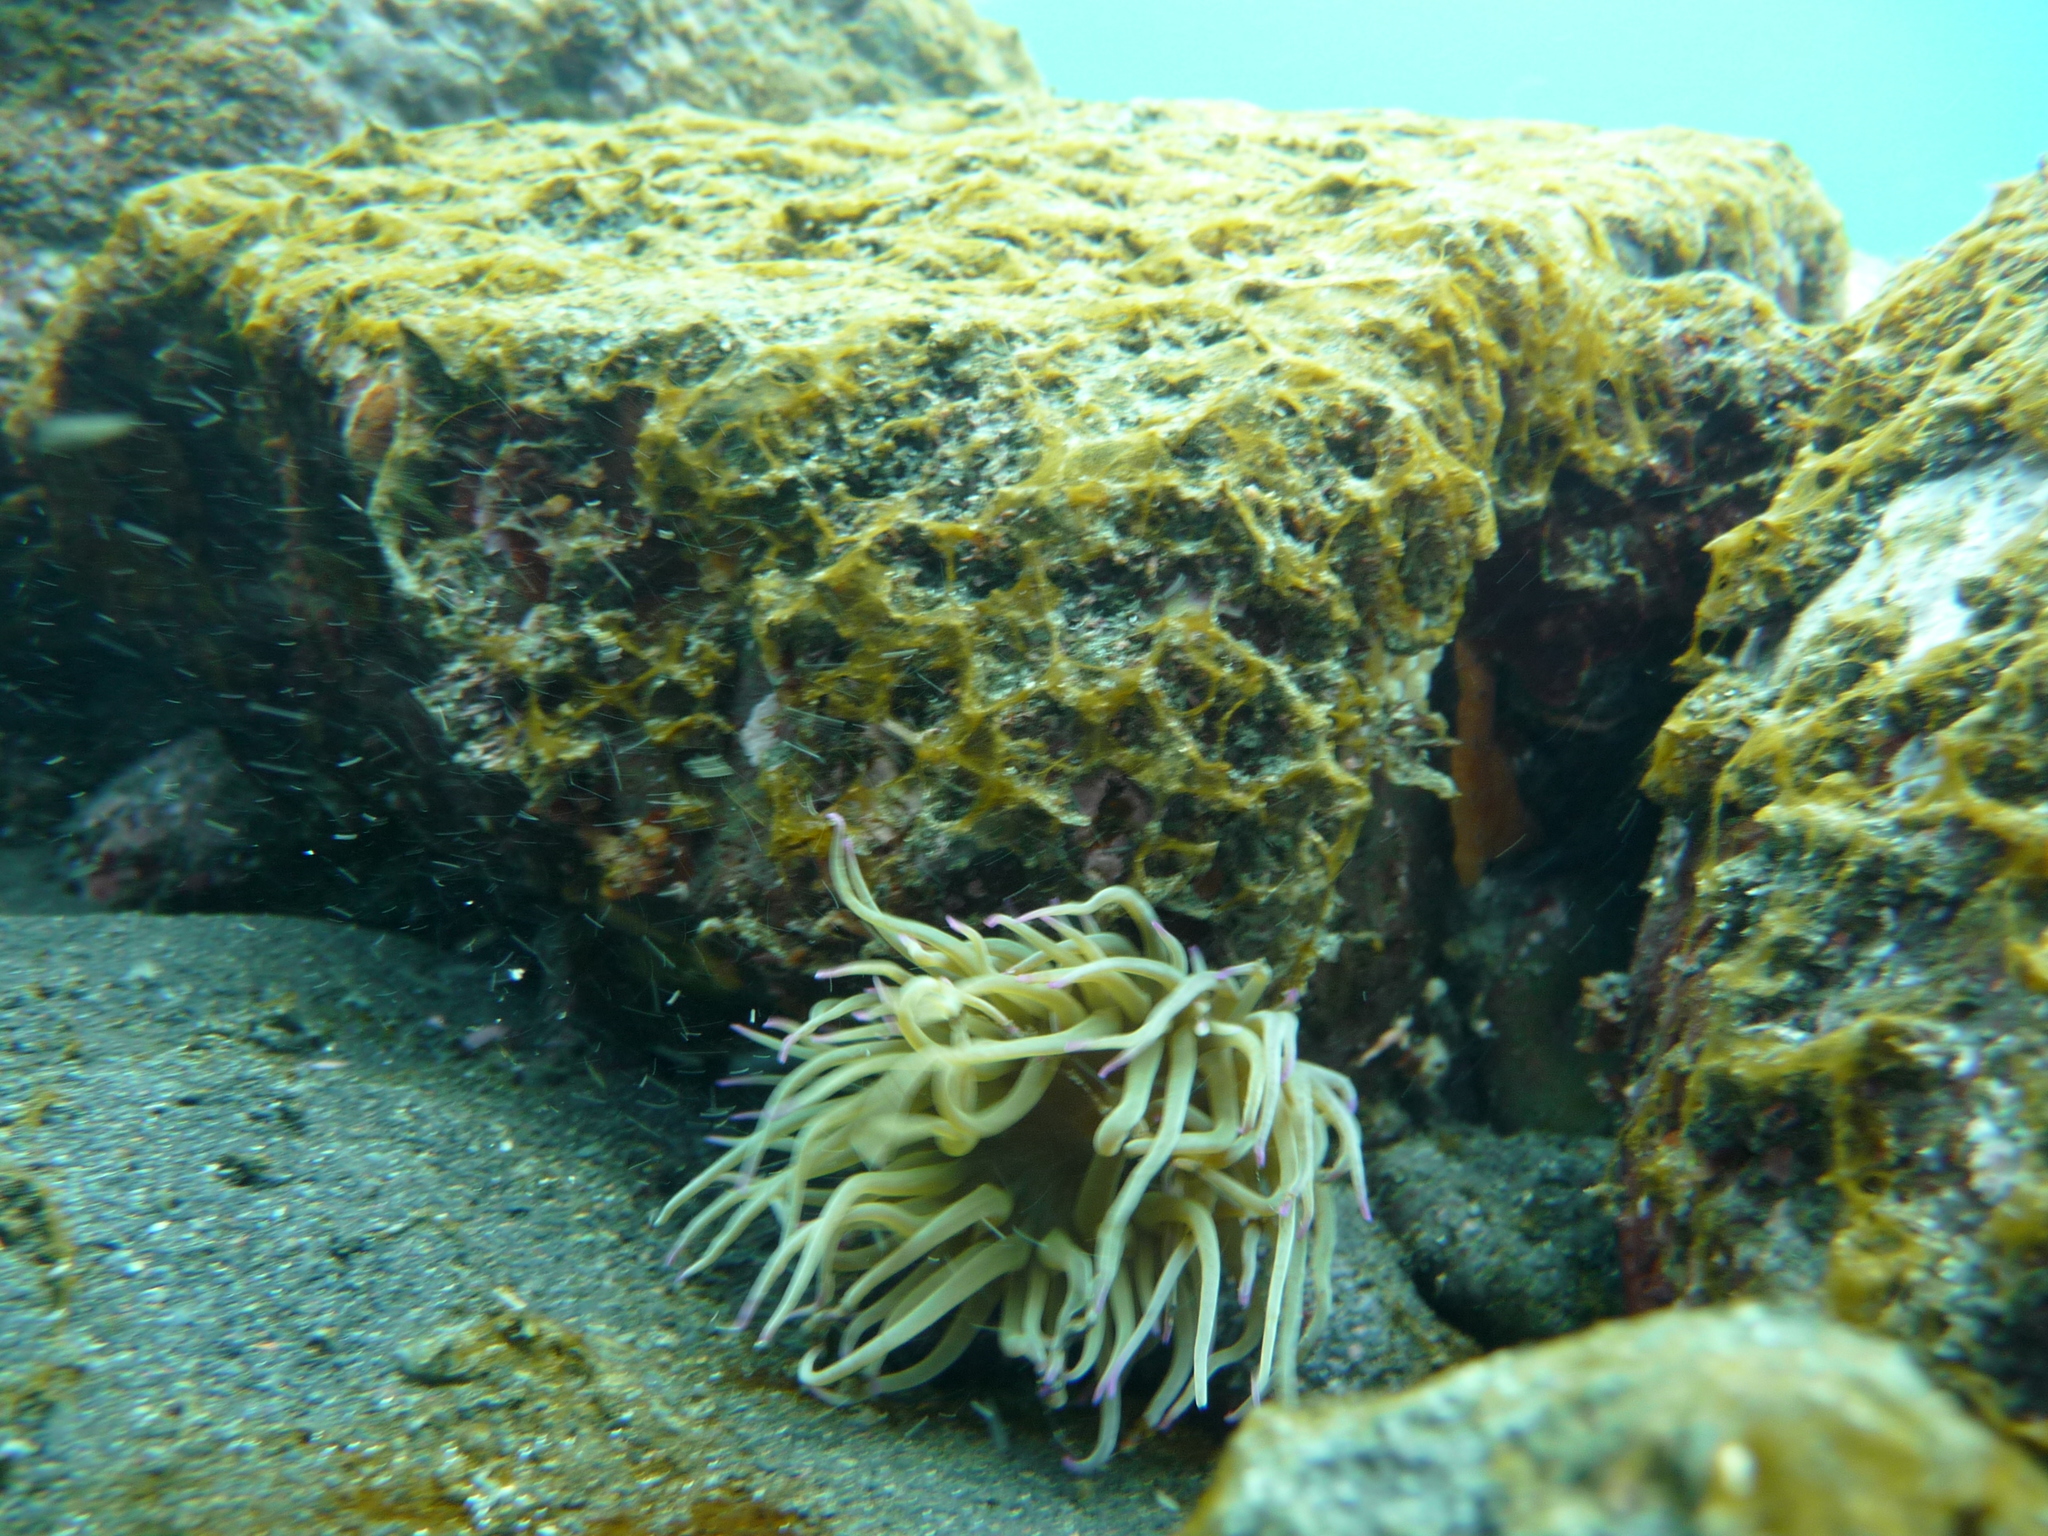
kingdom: Animalia
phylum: Cnidaria
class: Anthozoa
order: Actiniaria
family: Actiniidae
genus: Anemonia
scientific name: Anemonia viridis
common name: Snakelocks anemone
